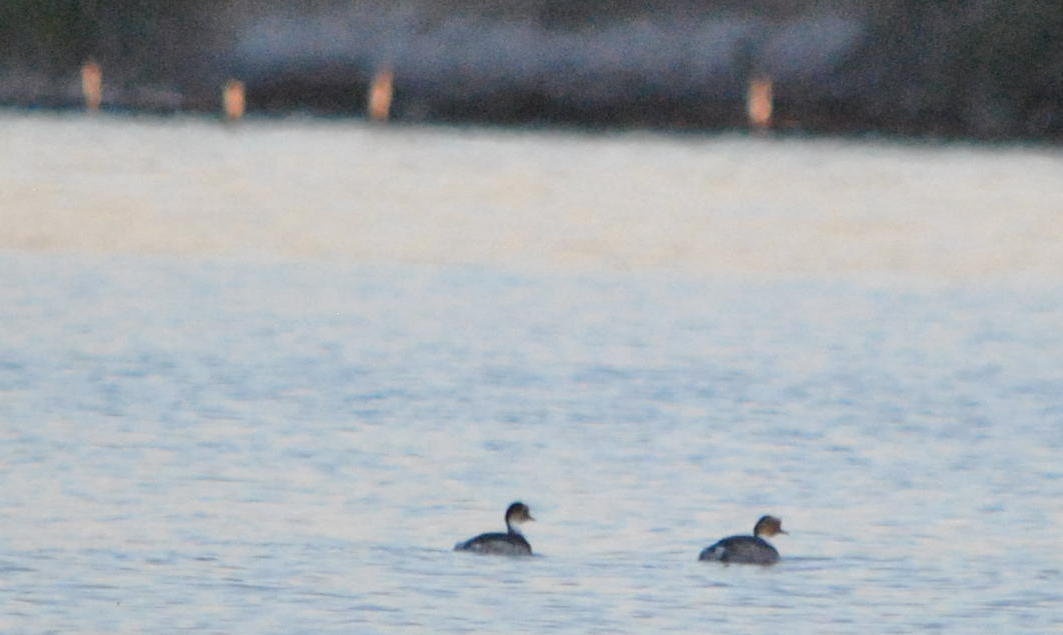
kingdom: Animalia
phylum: Chordata
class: Aves
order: Podicipediformes
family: Podicipedidae
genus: Podiceps
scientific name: Podiceps occipitalis
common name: Silvery grebe
